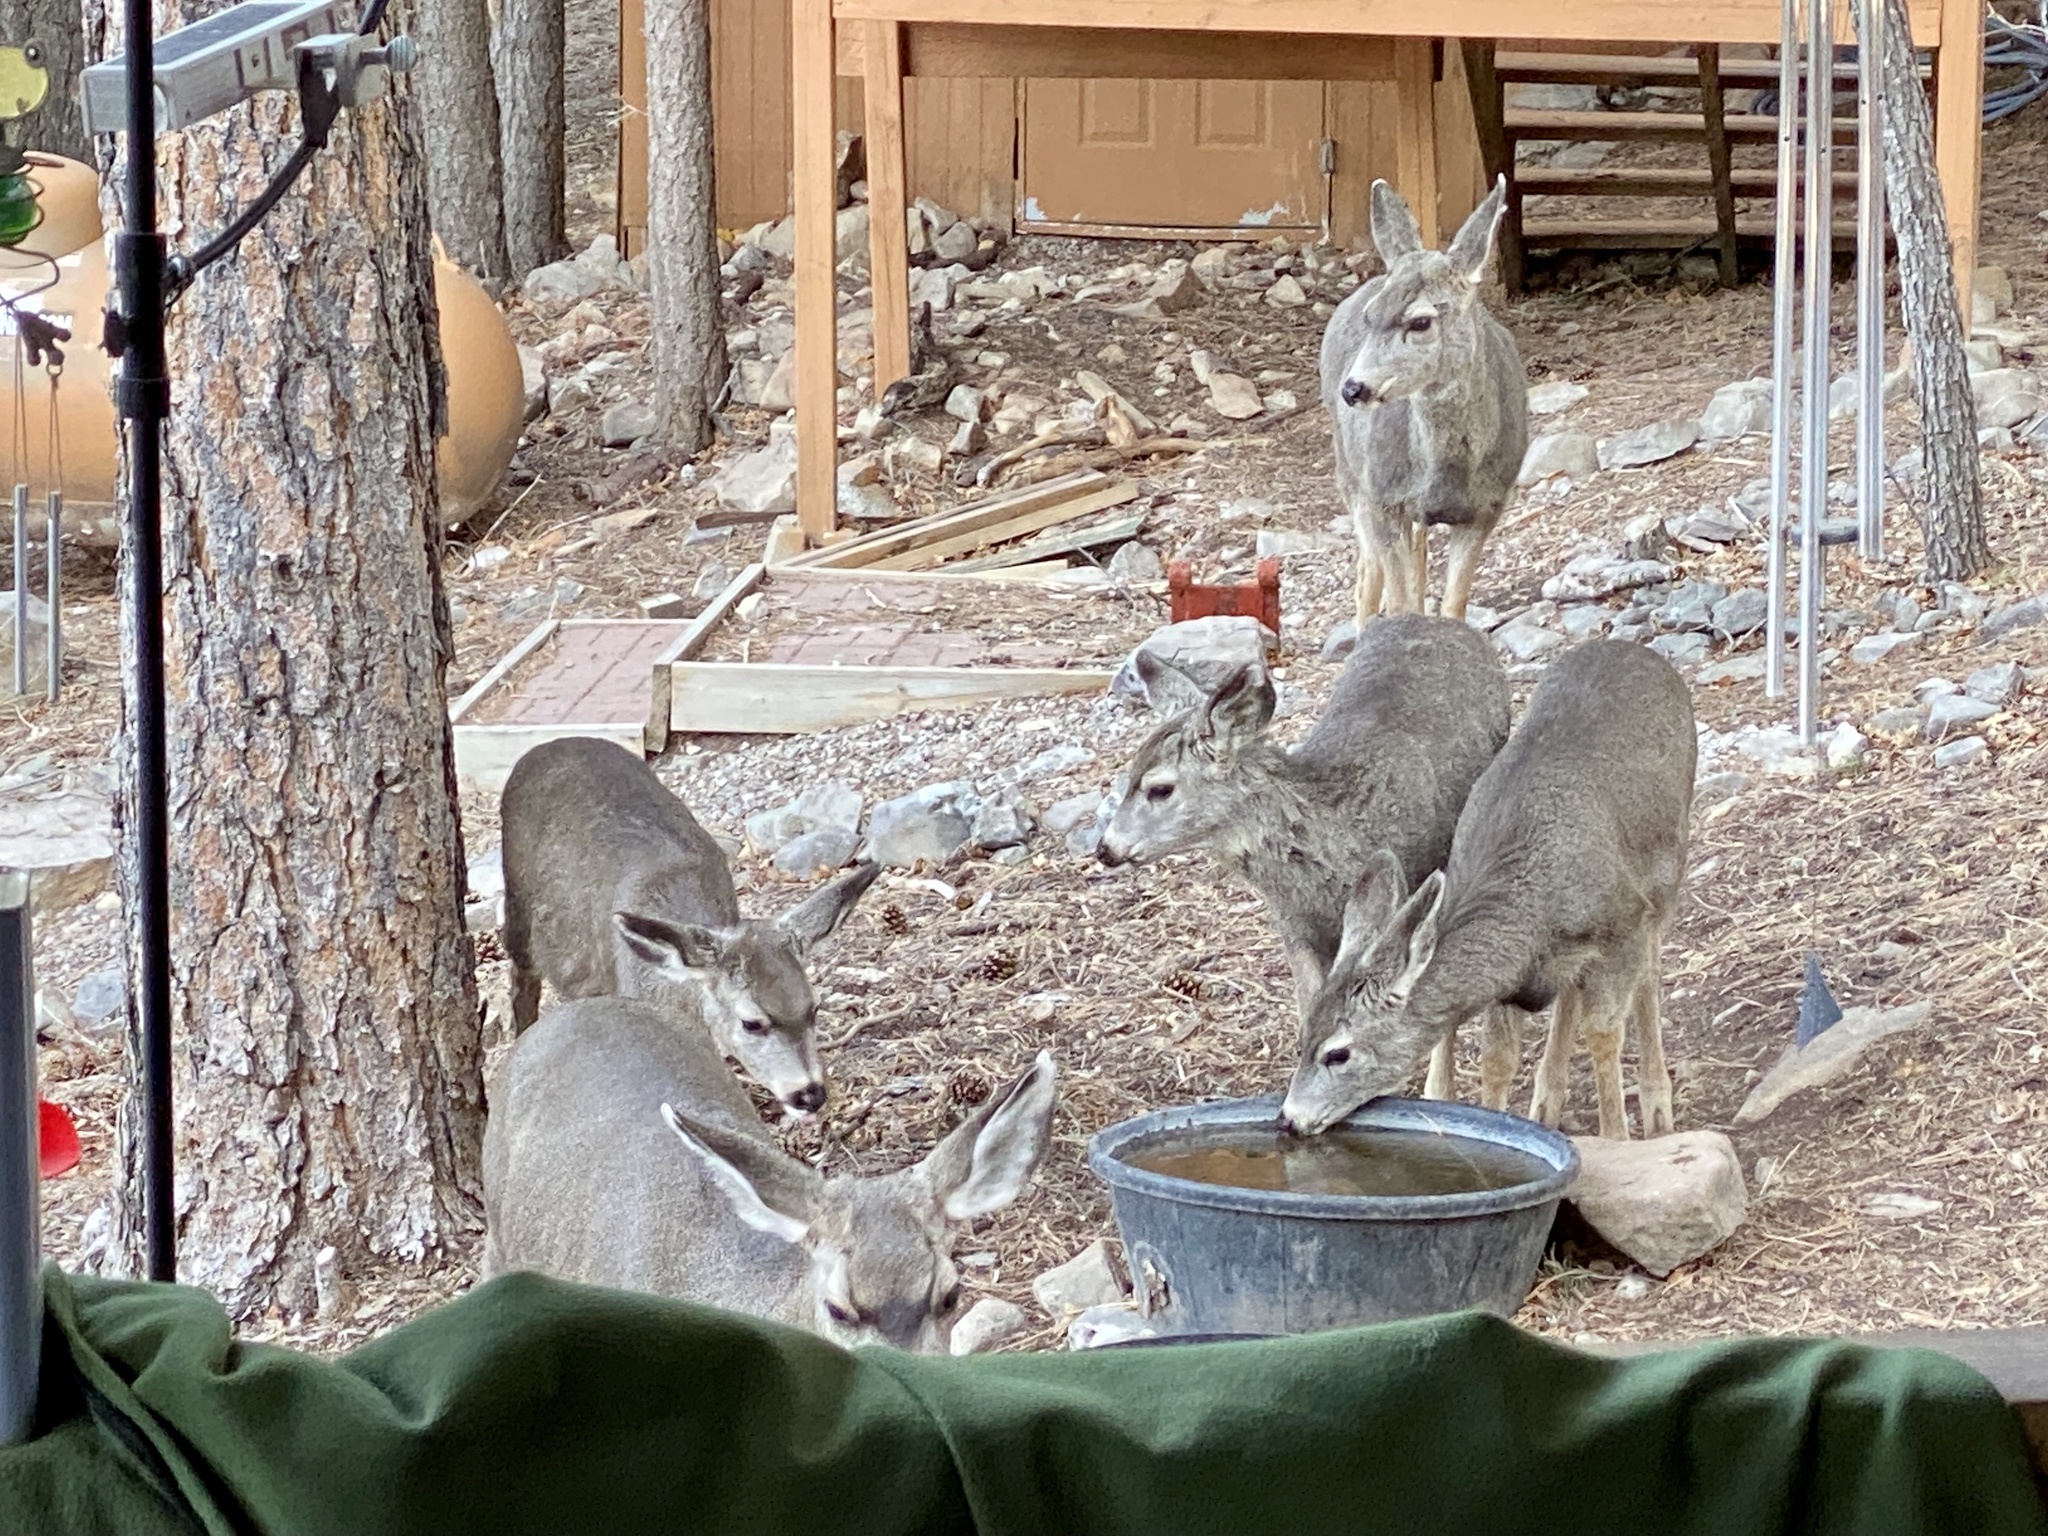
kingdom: Animalia
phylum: Chordata
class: Mammalia
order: Artiodactyla
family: Cervidae
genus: Odocoileus
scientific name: Odocoileus hemionus
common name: Mule deer
